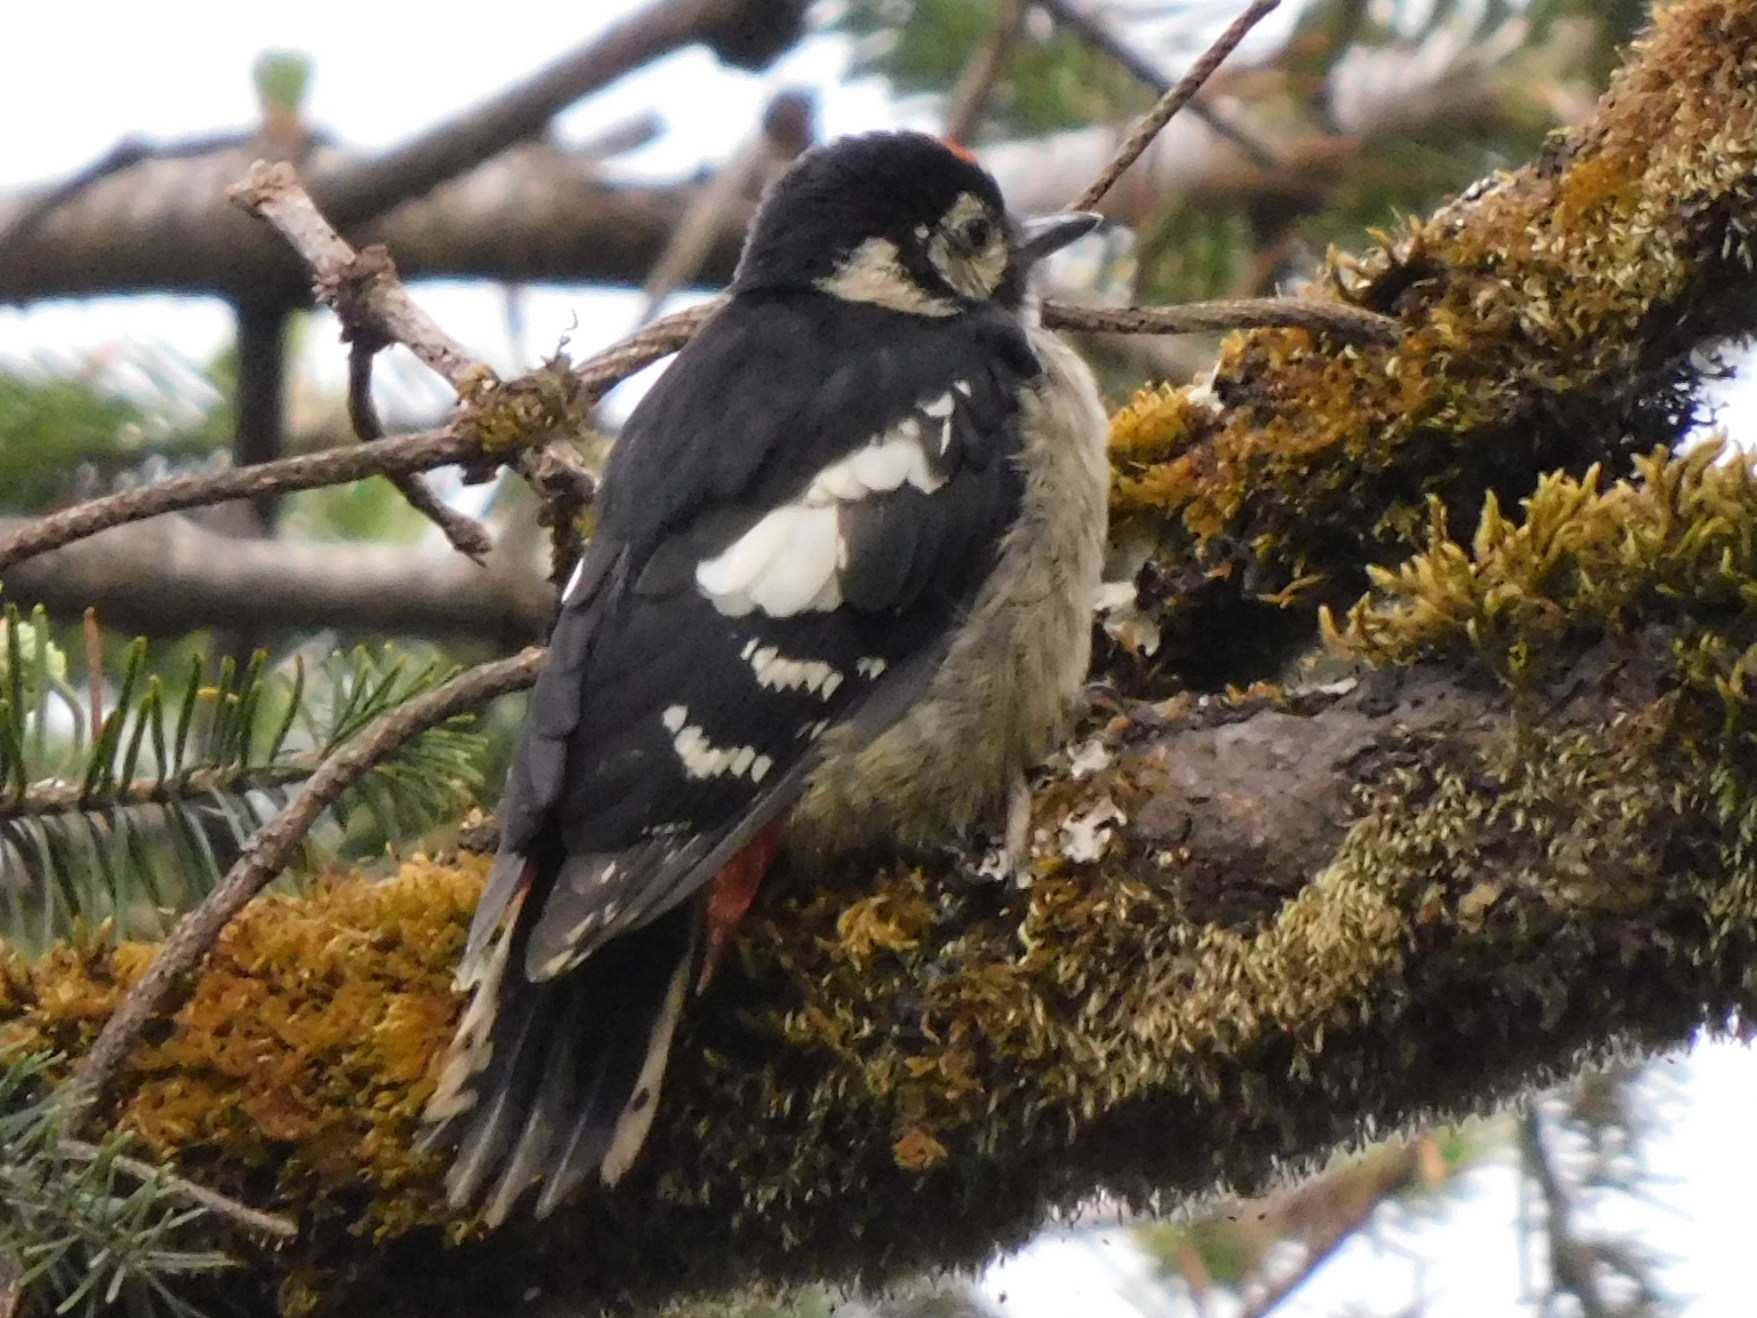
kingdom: Animalia
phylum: Chordata
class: Aves
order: Piciformes
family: Picidae
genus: Dendrocopos
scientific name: Dendrocopos himalayensis
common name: Himalayan woodpecker
